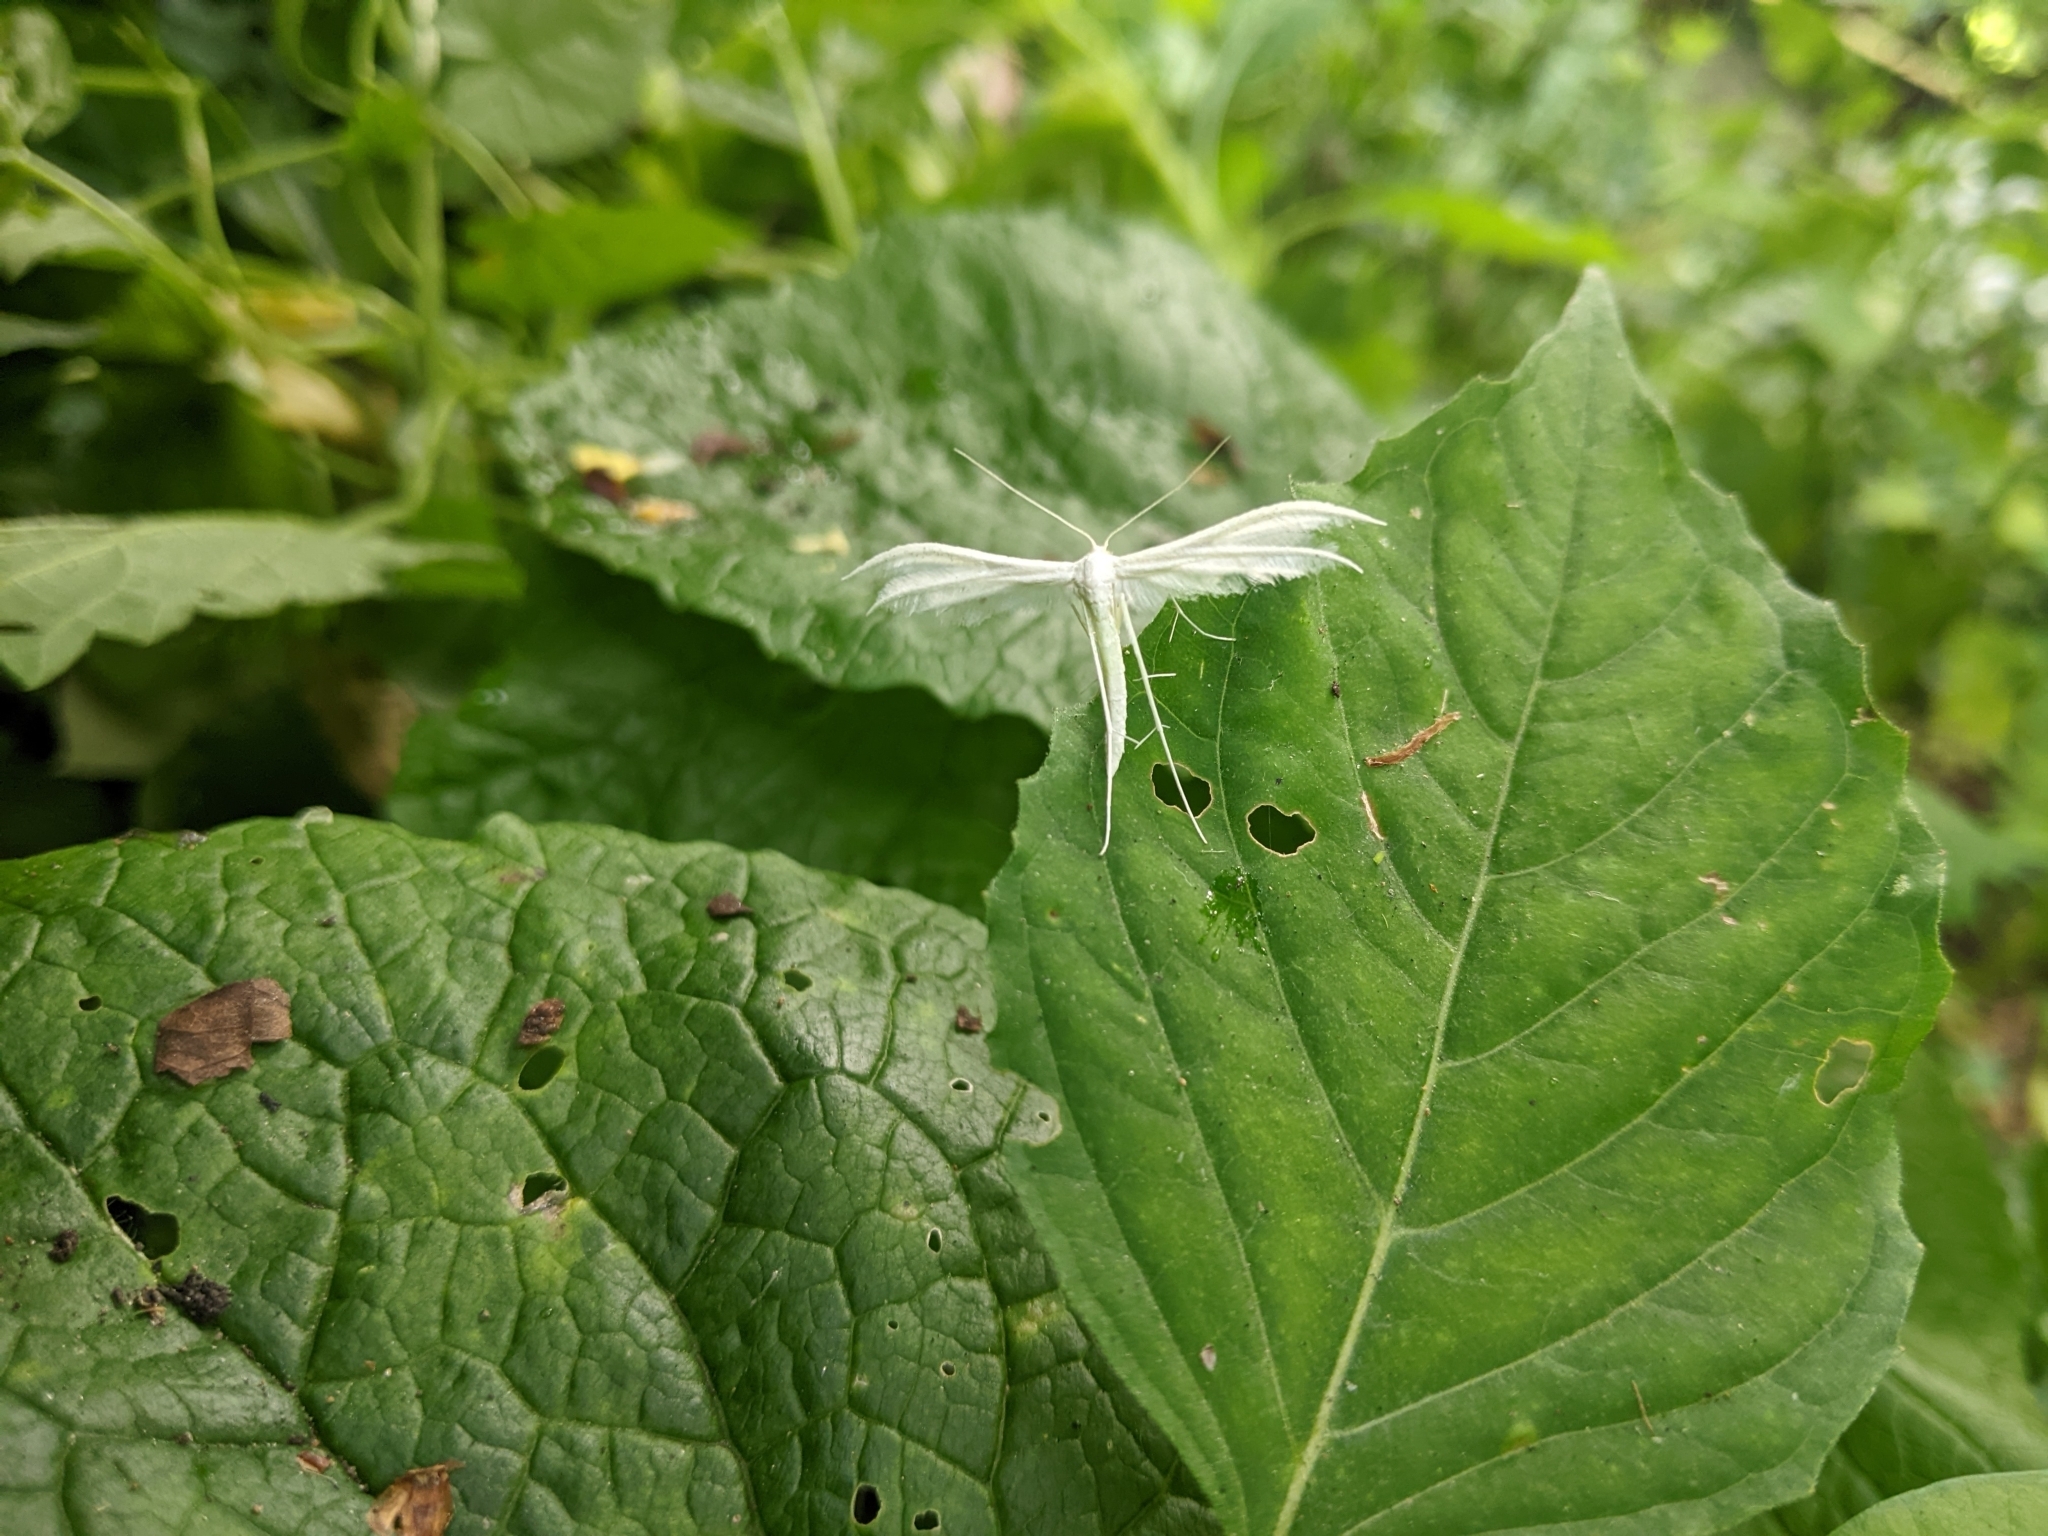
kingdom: Animalia
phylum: Arthropoda
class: Insecta
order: Lepidoptera
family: Pterophoridae
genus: Pterophorus
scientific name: Pterophorus pentadactyla
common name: White plume moth
